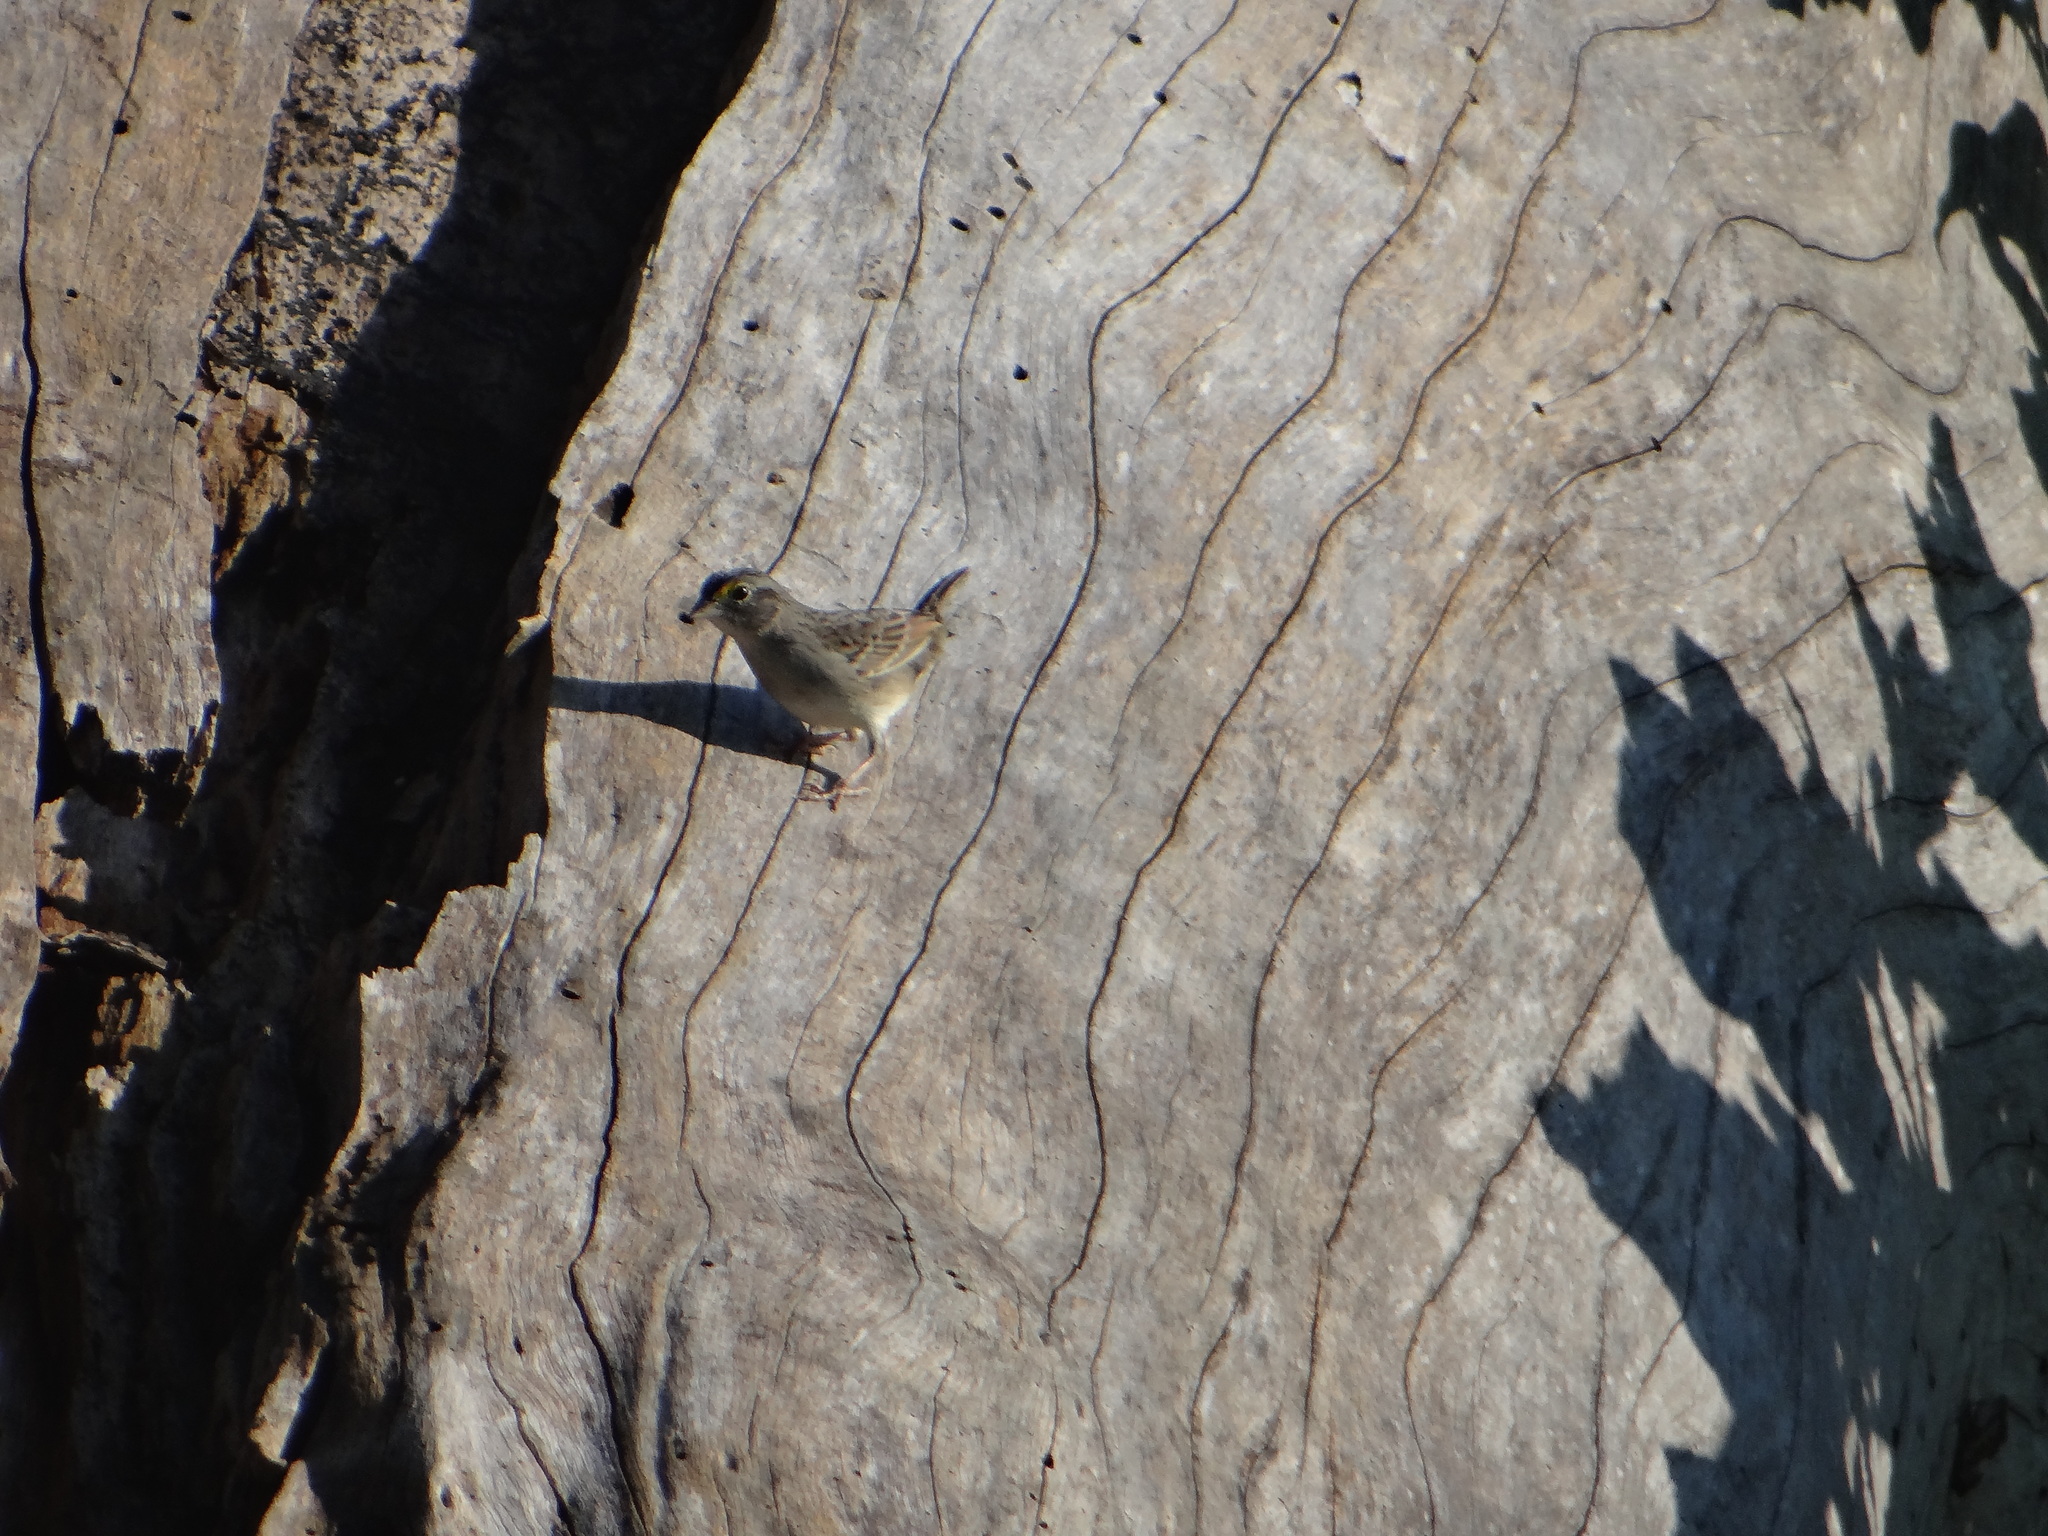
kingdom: Animalia
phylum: Chordata
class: Aves
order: Passeriformes
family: Passerellidae
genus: Ammodramus
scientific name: Ammodramus humeralis
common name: Grassland sparrow
